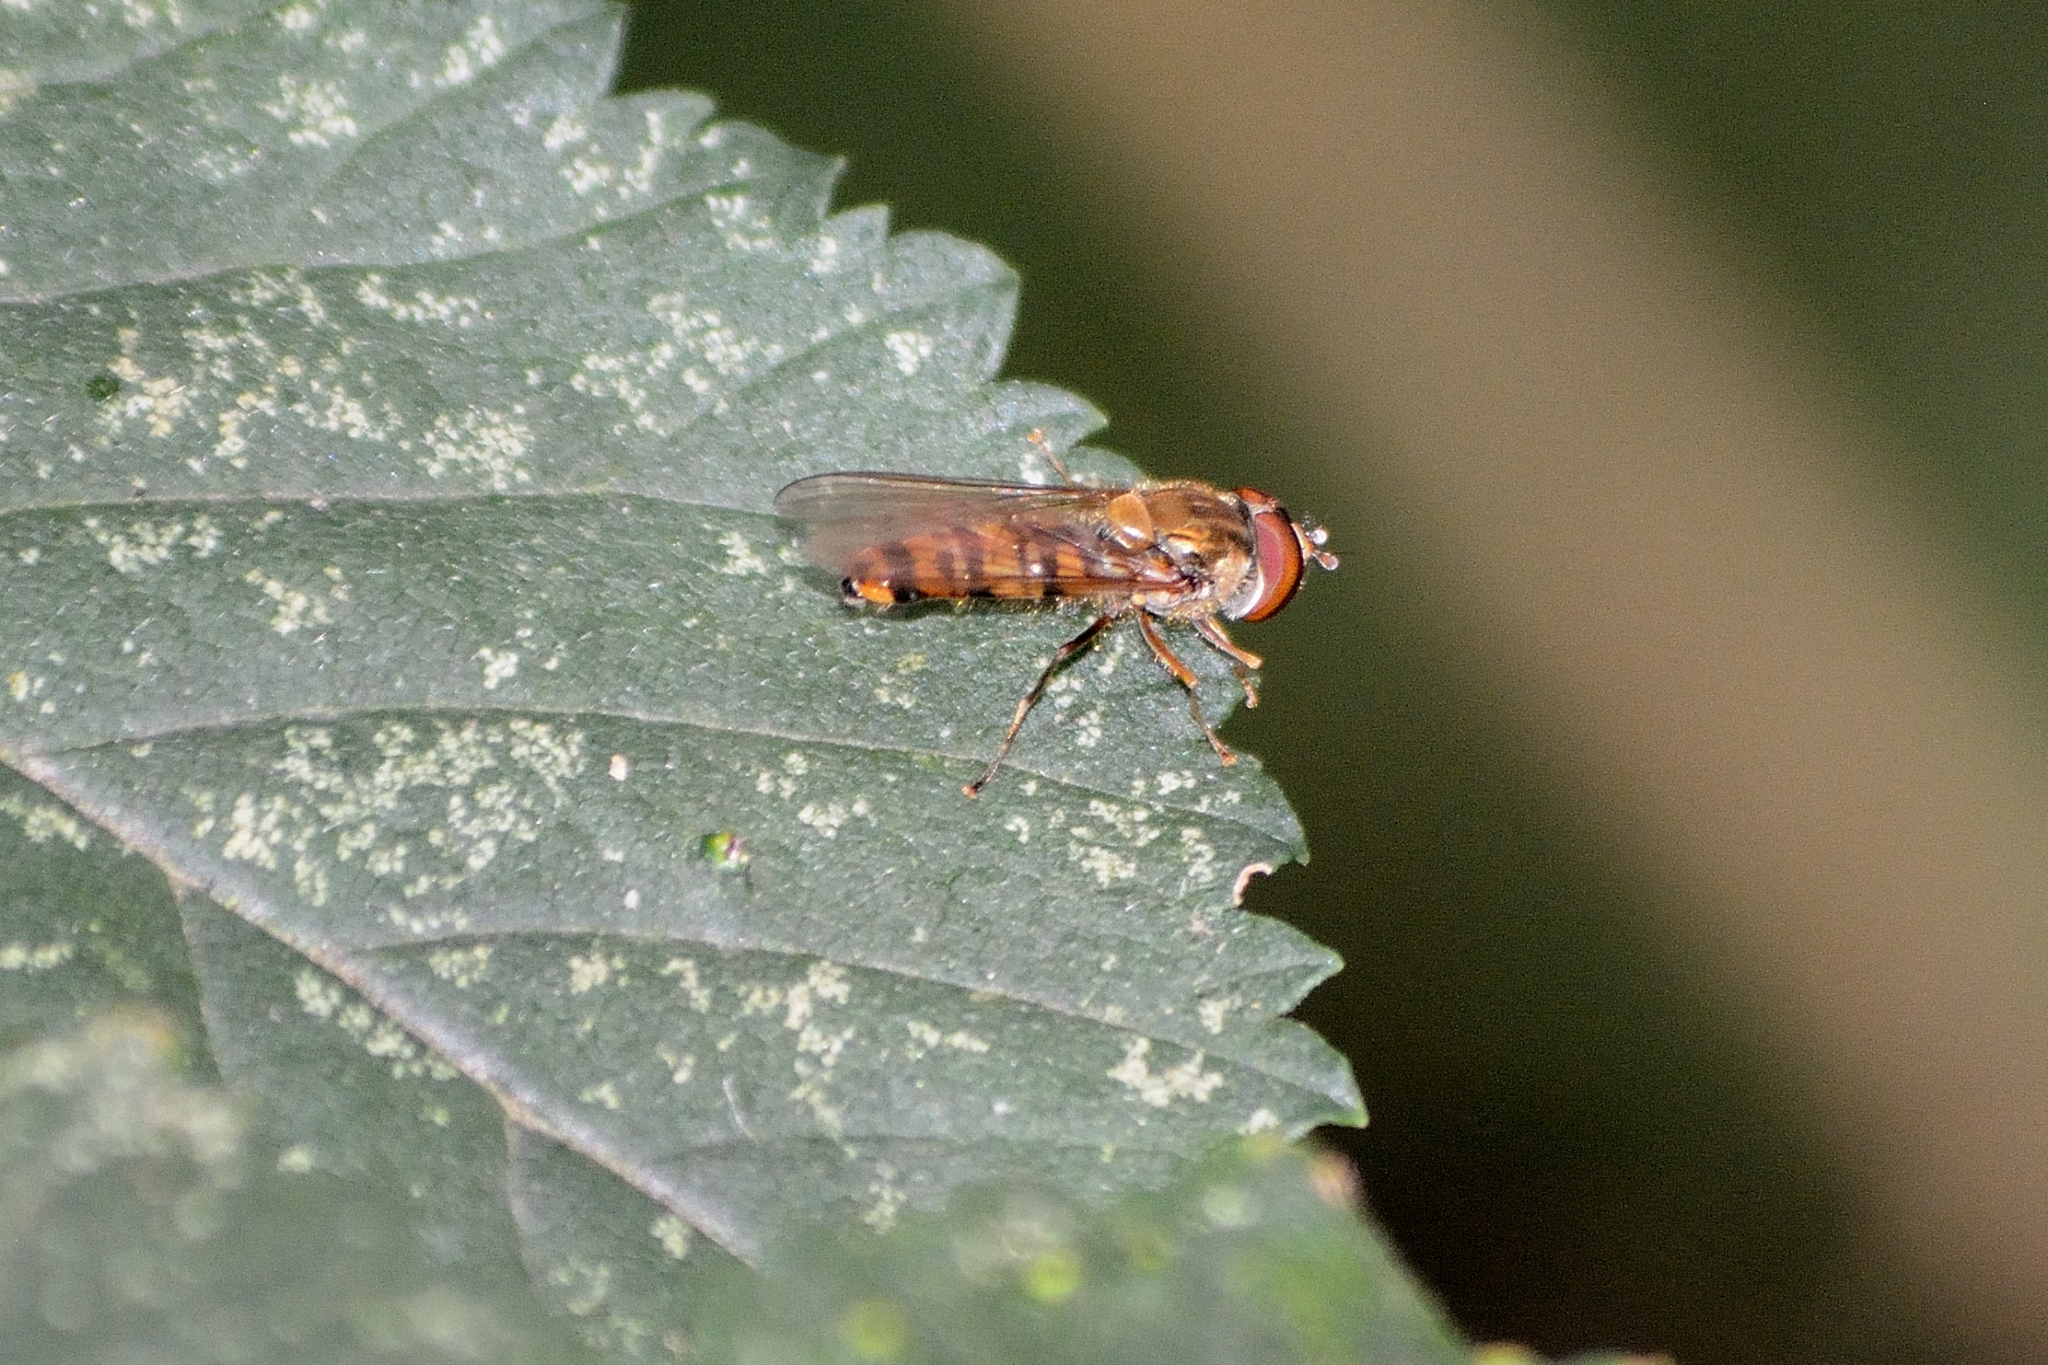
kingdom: Animalia
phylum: Arthropoda
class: Insecta
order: Diptera
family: Syrphidae
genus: Episyrphus
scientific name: Episyrphus balteatus
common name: Marmalade hoverfly
